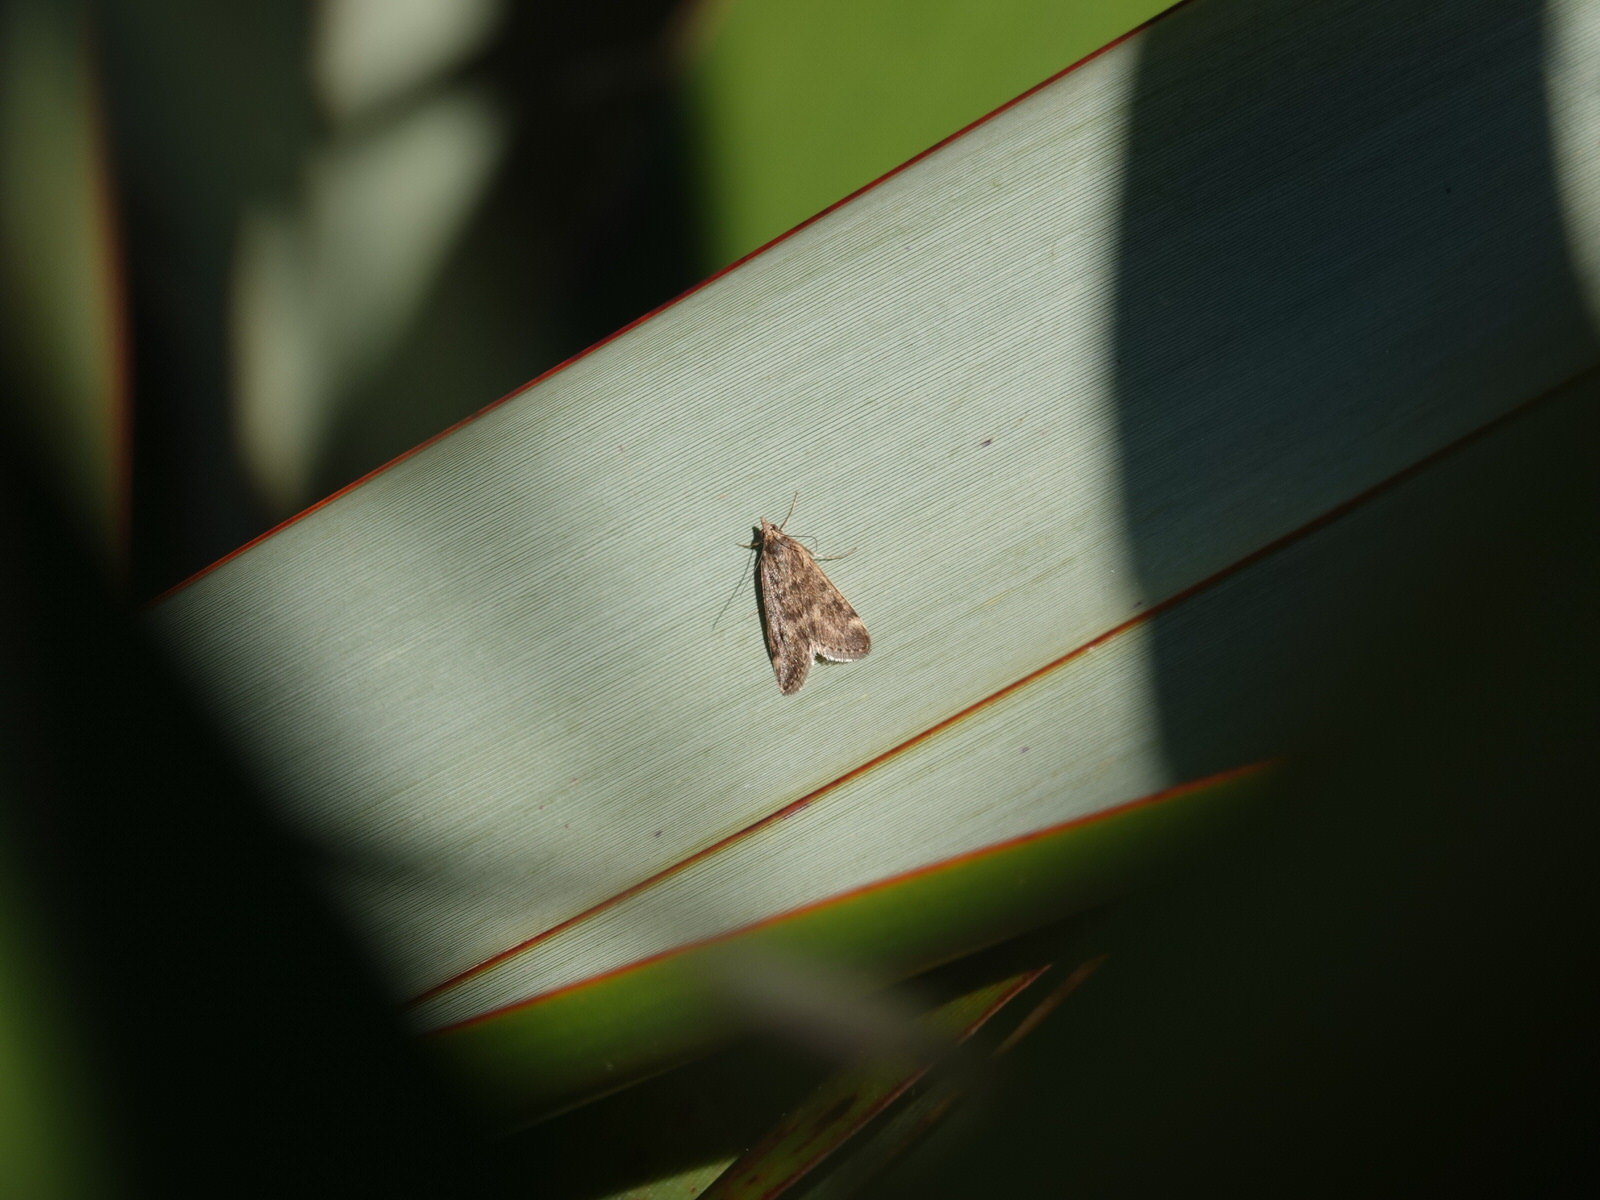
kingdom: Animalia
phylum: Arthropoda
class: Insecta
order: Lepidoptera
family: Crambidae
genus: Achyra
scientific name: Achyra affinitalis
